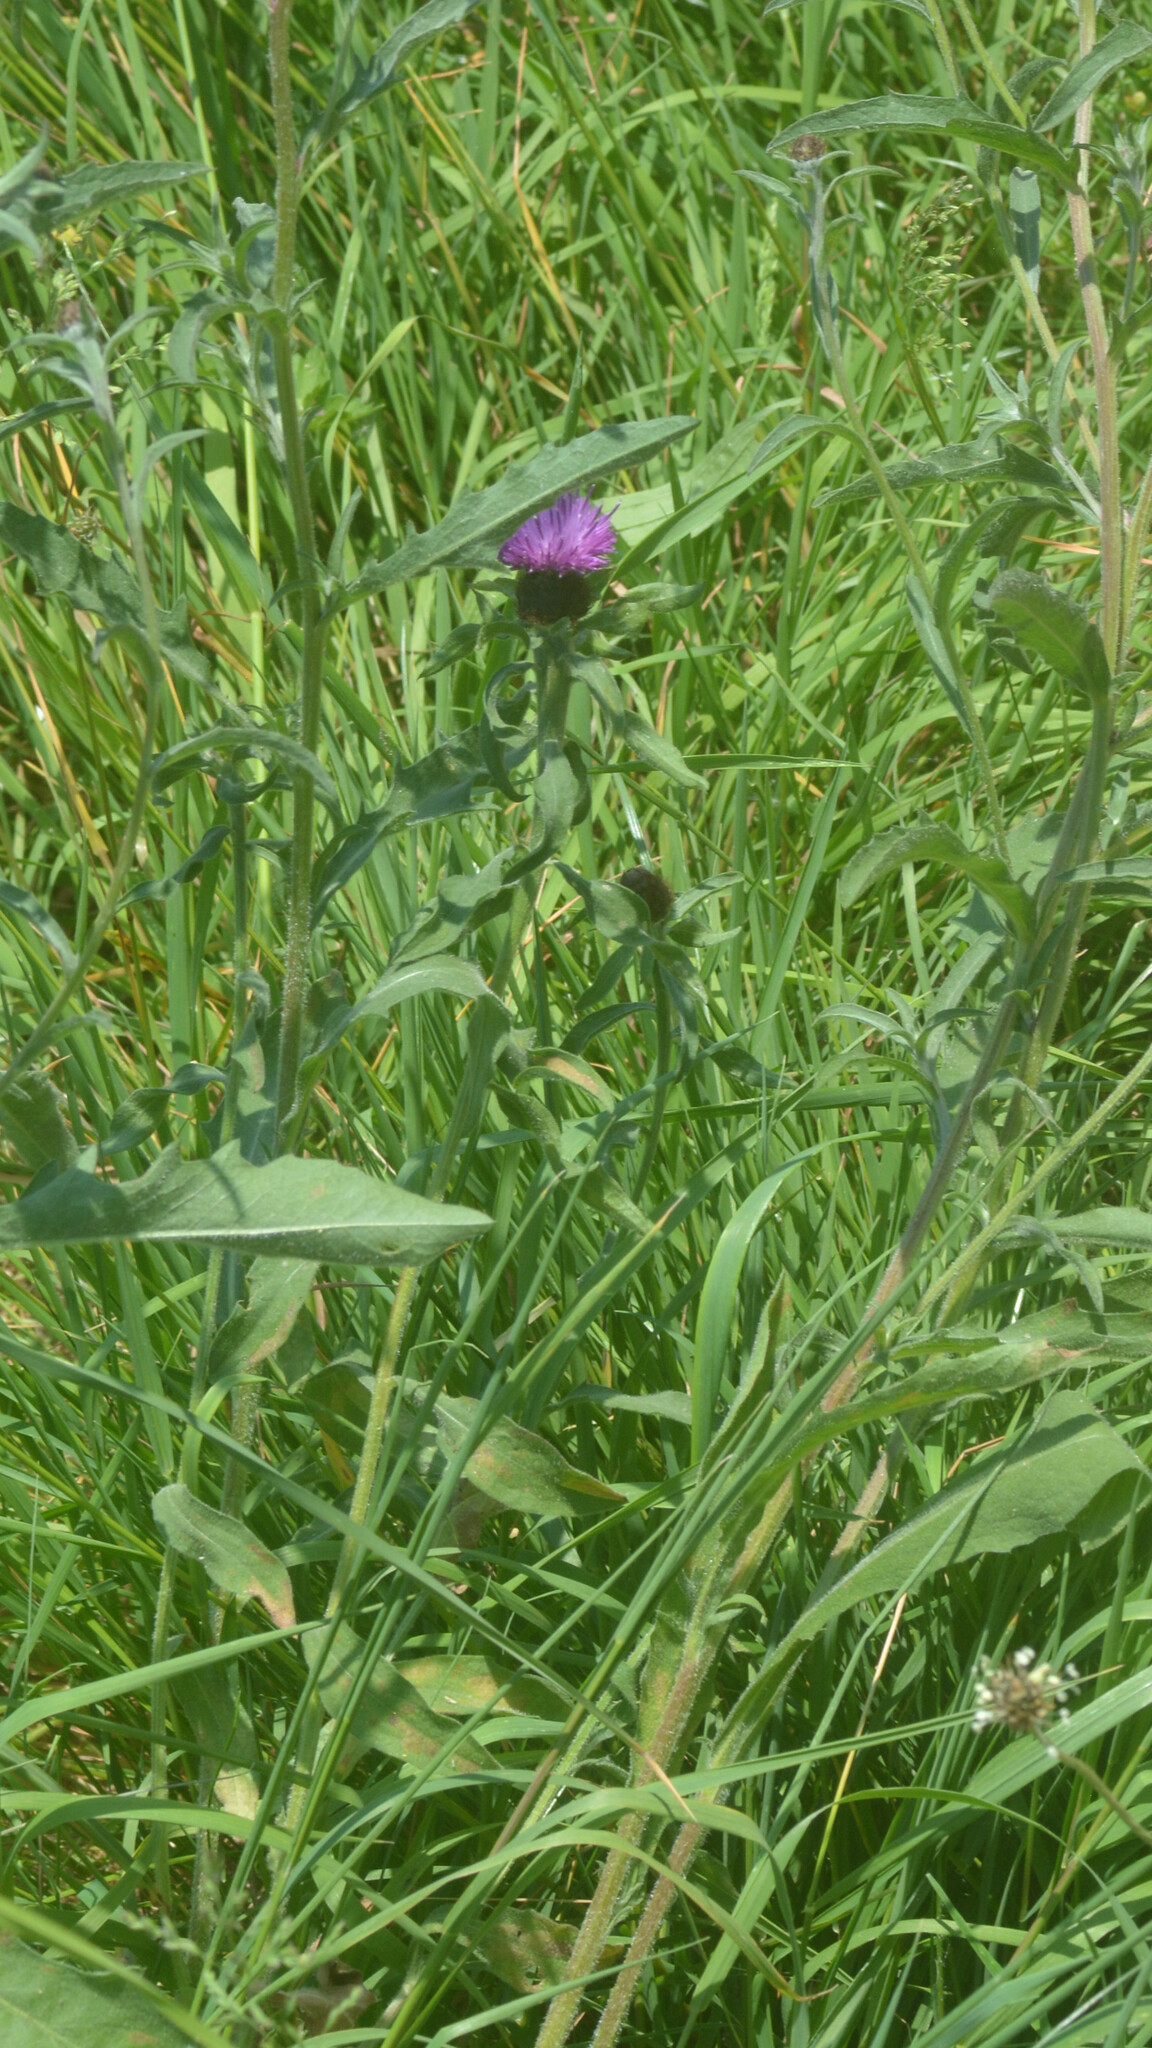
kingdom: Plantae
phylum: Tracheophyta
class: Magnoliopsida
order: Asterales
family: Asteraceae
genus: Centaurea
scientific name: Centaurea nigra
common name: Lesser knapweed
